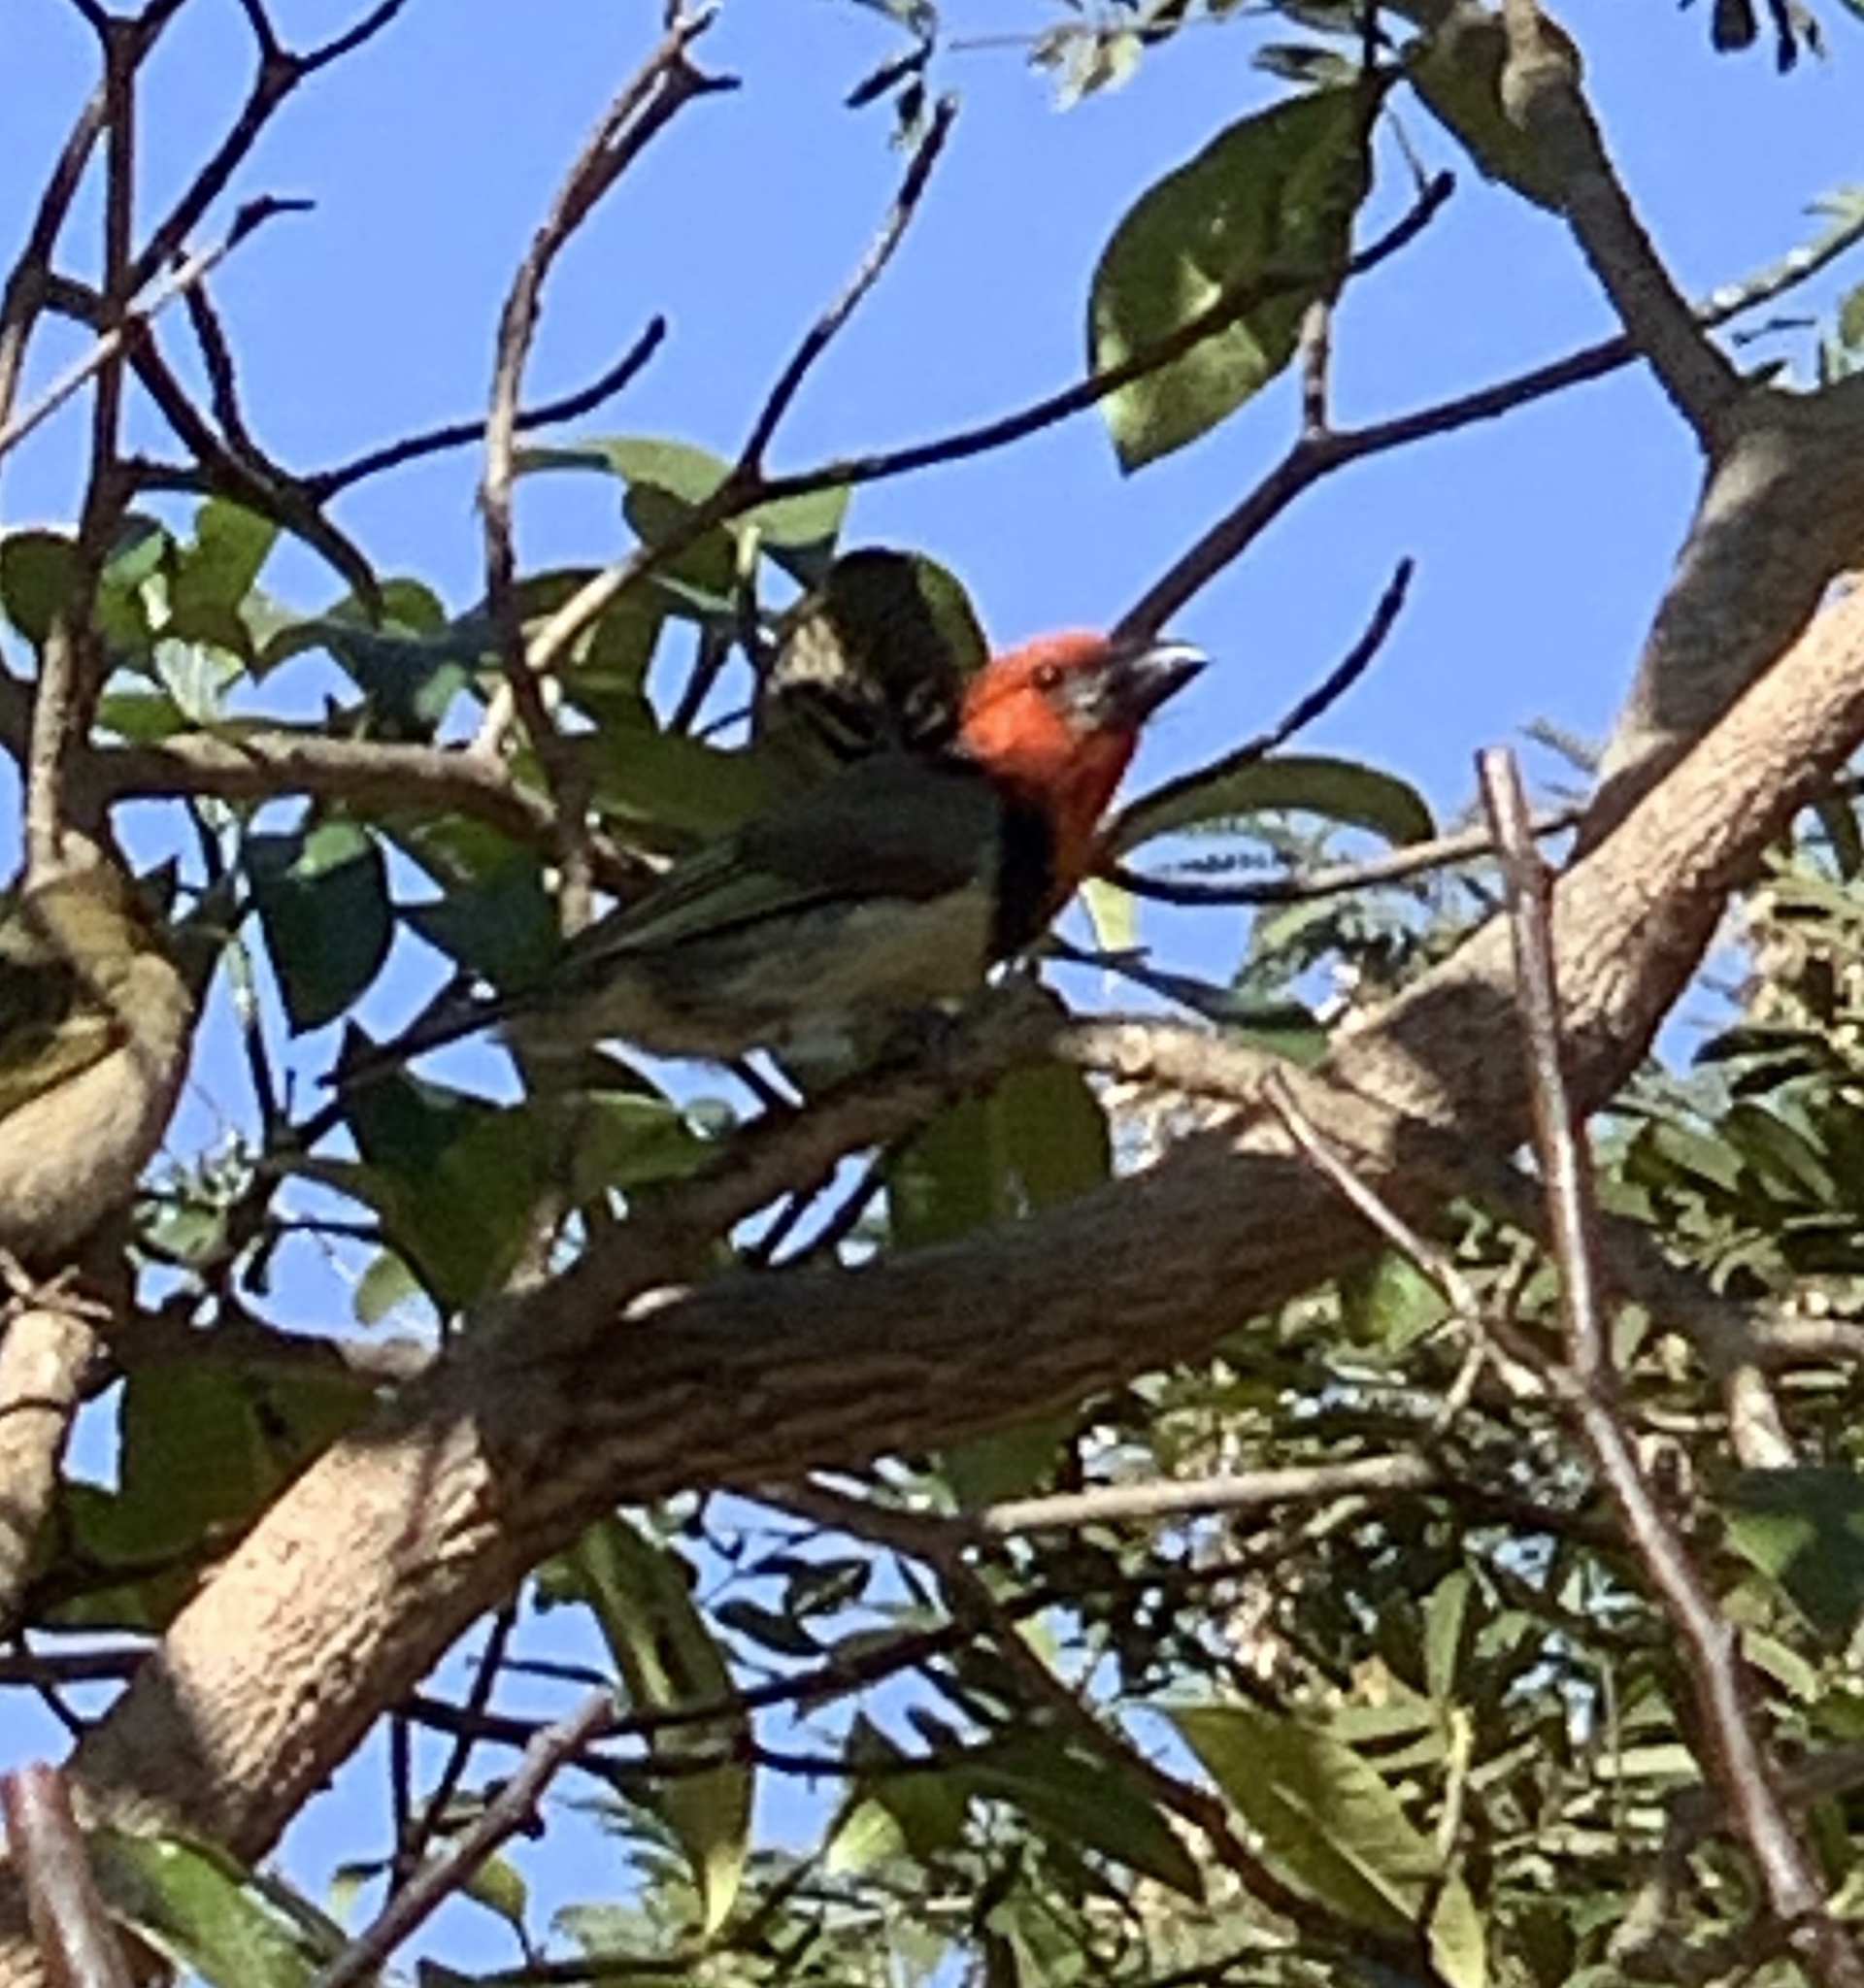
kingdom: Animalia
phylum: Chordata
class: Aves
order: Piciformes
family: Lybiidae
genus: Lybius
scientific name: Lybius torquatus
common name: Black-collared barbet
